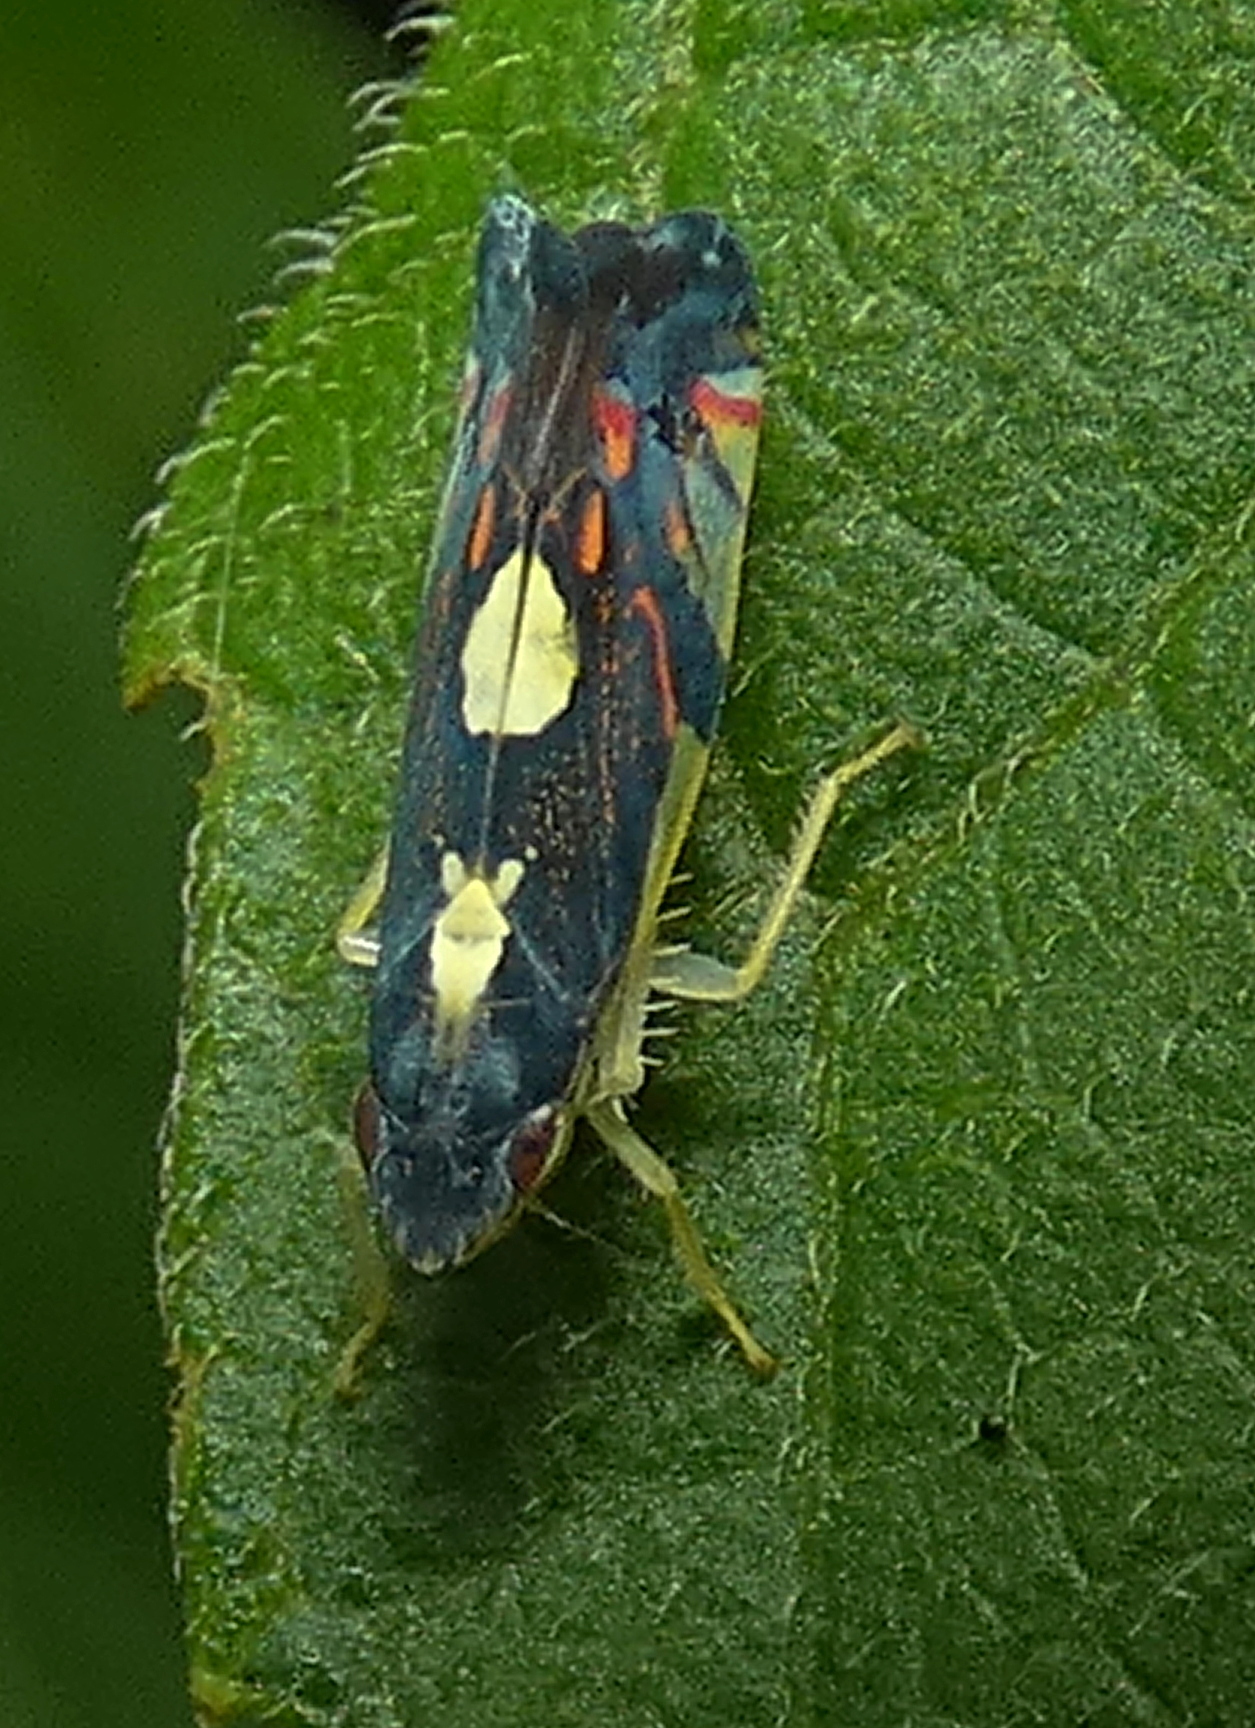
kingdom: Animalia
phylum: Arthropoda
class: Insecta
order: Hemiptera
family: Cicadellidae
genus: Diedrocephala
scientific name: Diedrocephala variegata
